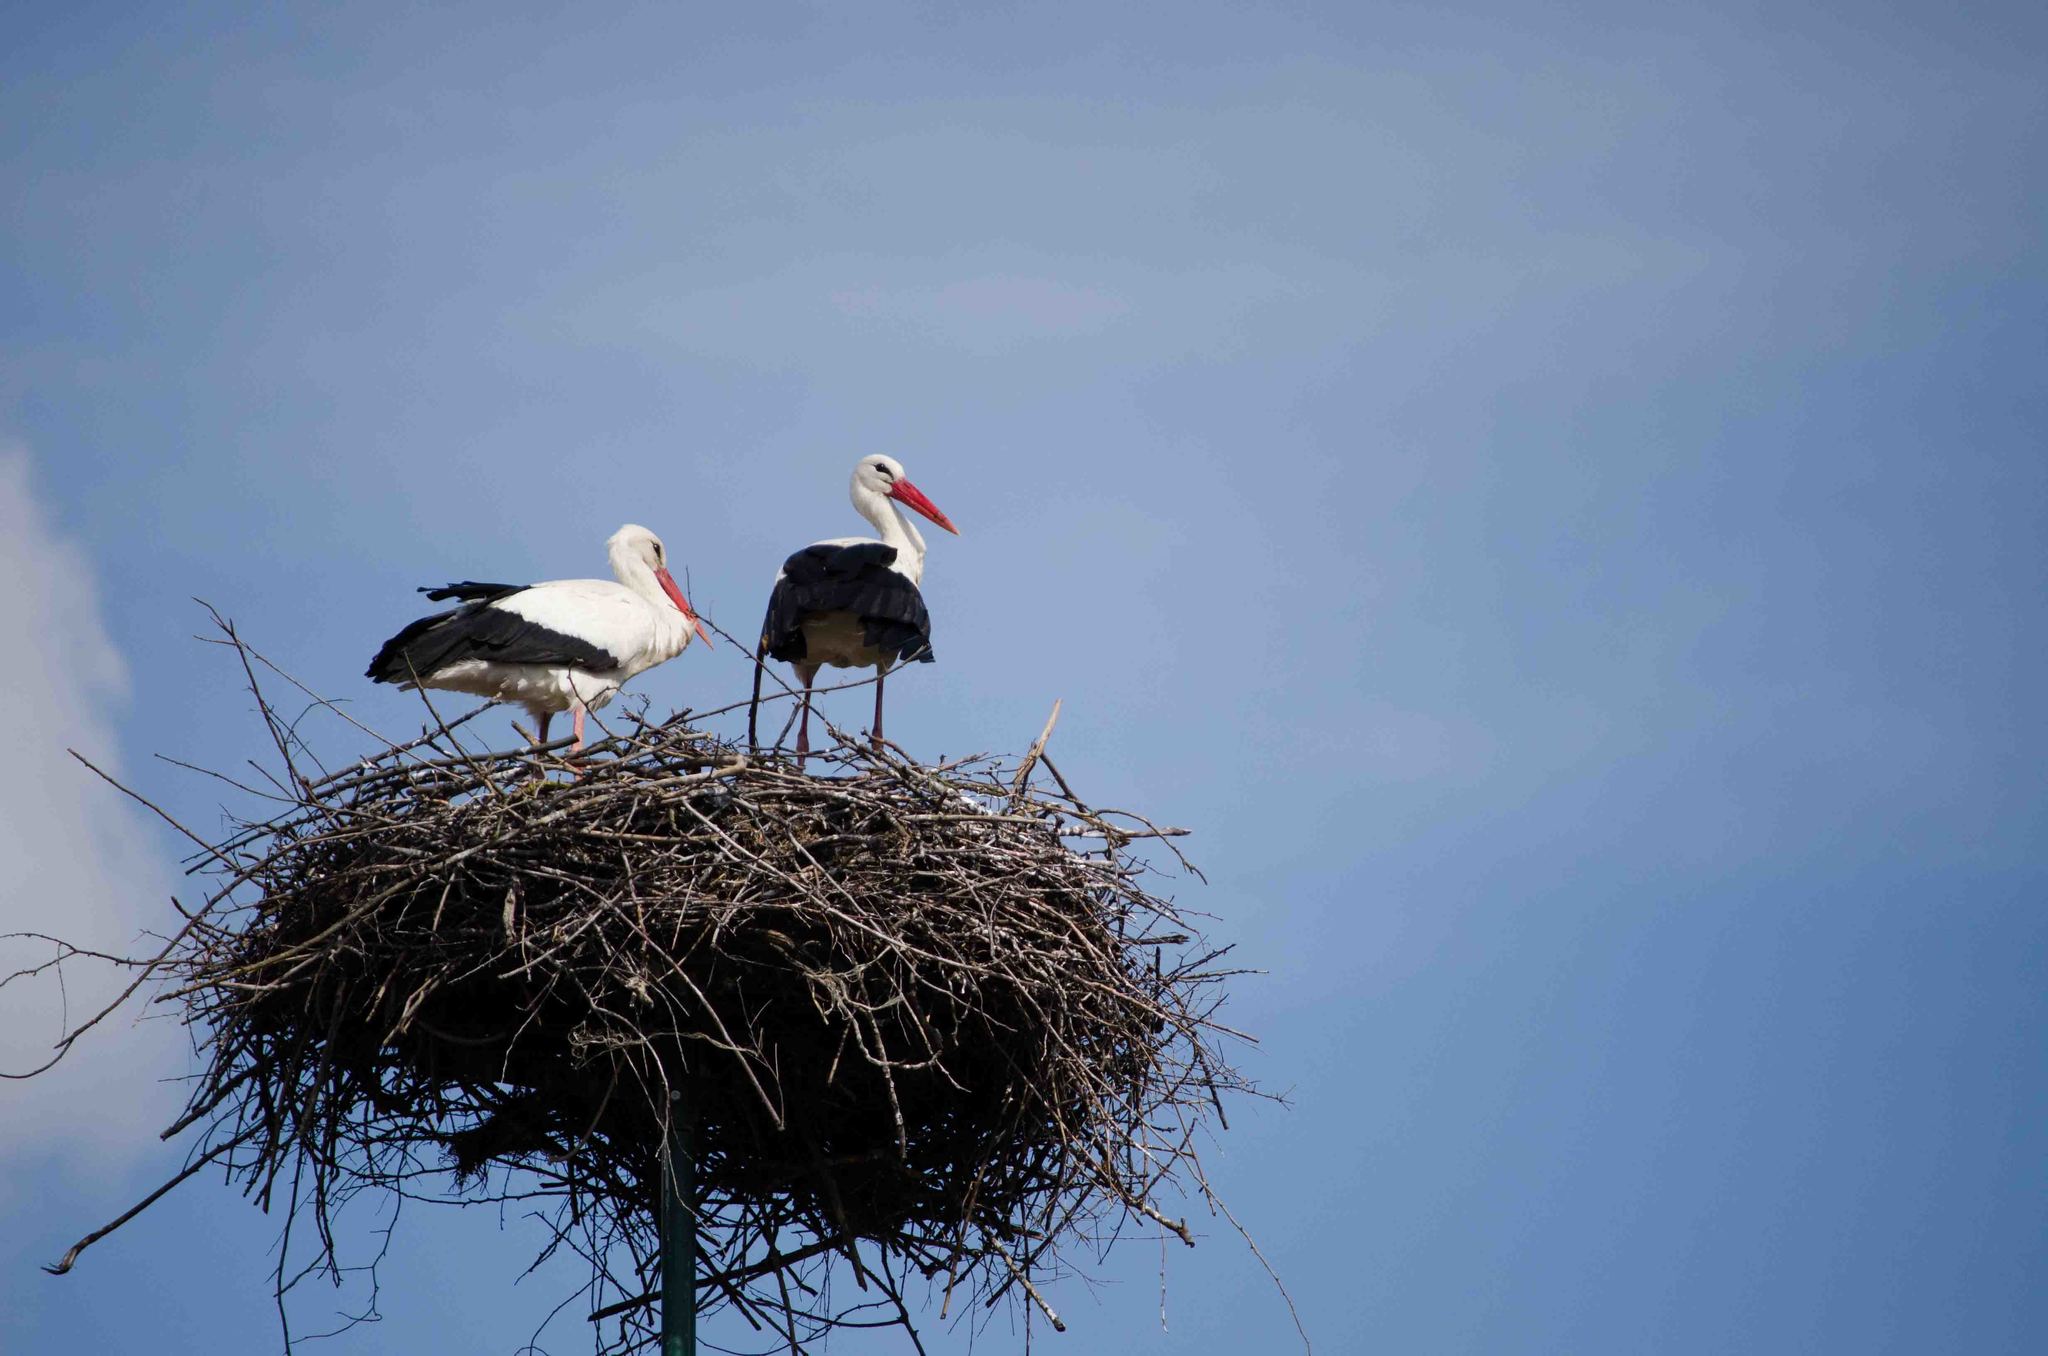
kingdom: Animalia
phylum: Chordata
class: Aves
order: Ciconiiformes
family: Ciconiidae
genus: Ciconia
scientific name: Ciconia ciconia
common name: White stork
